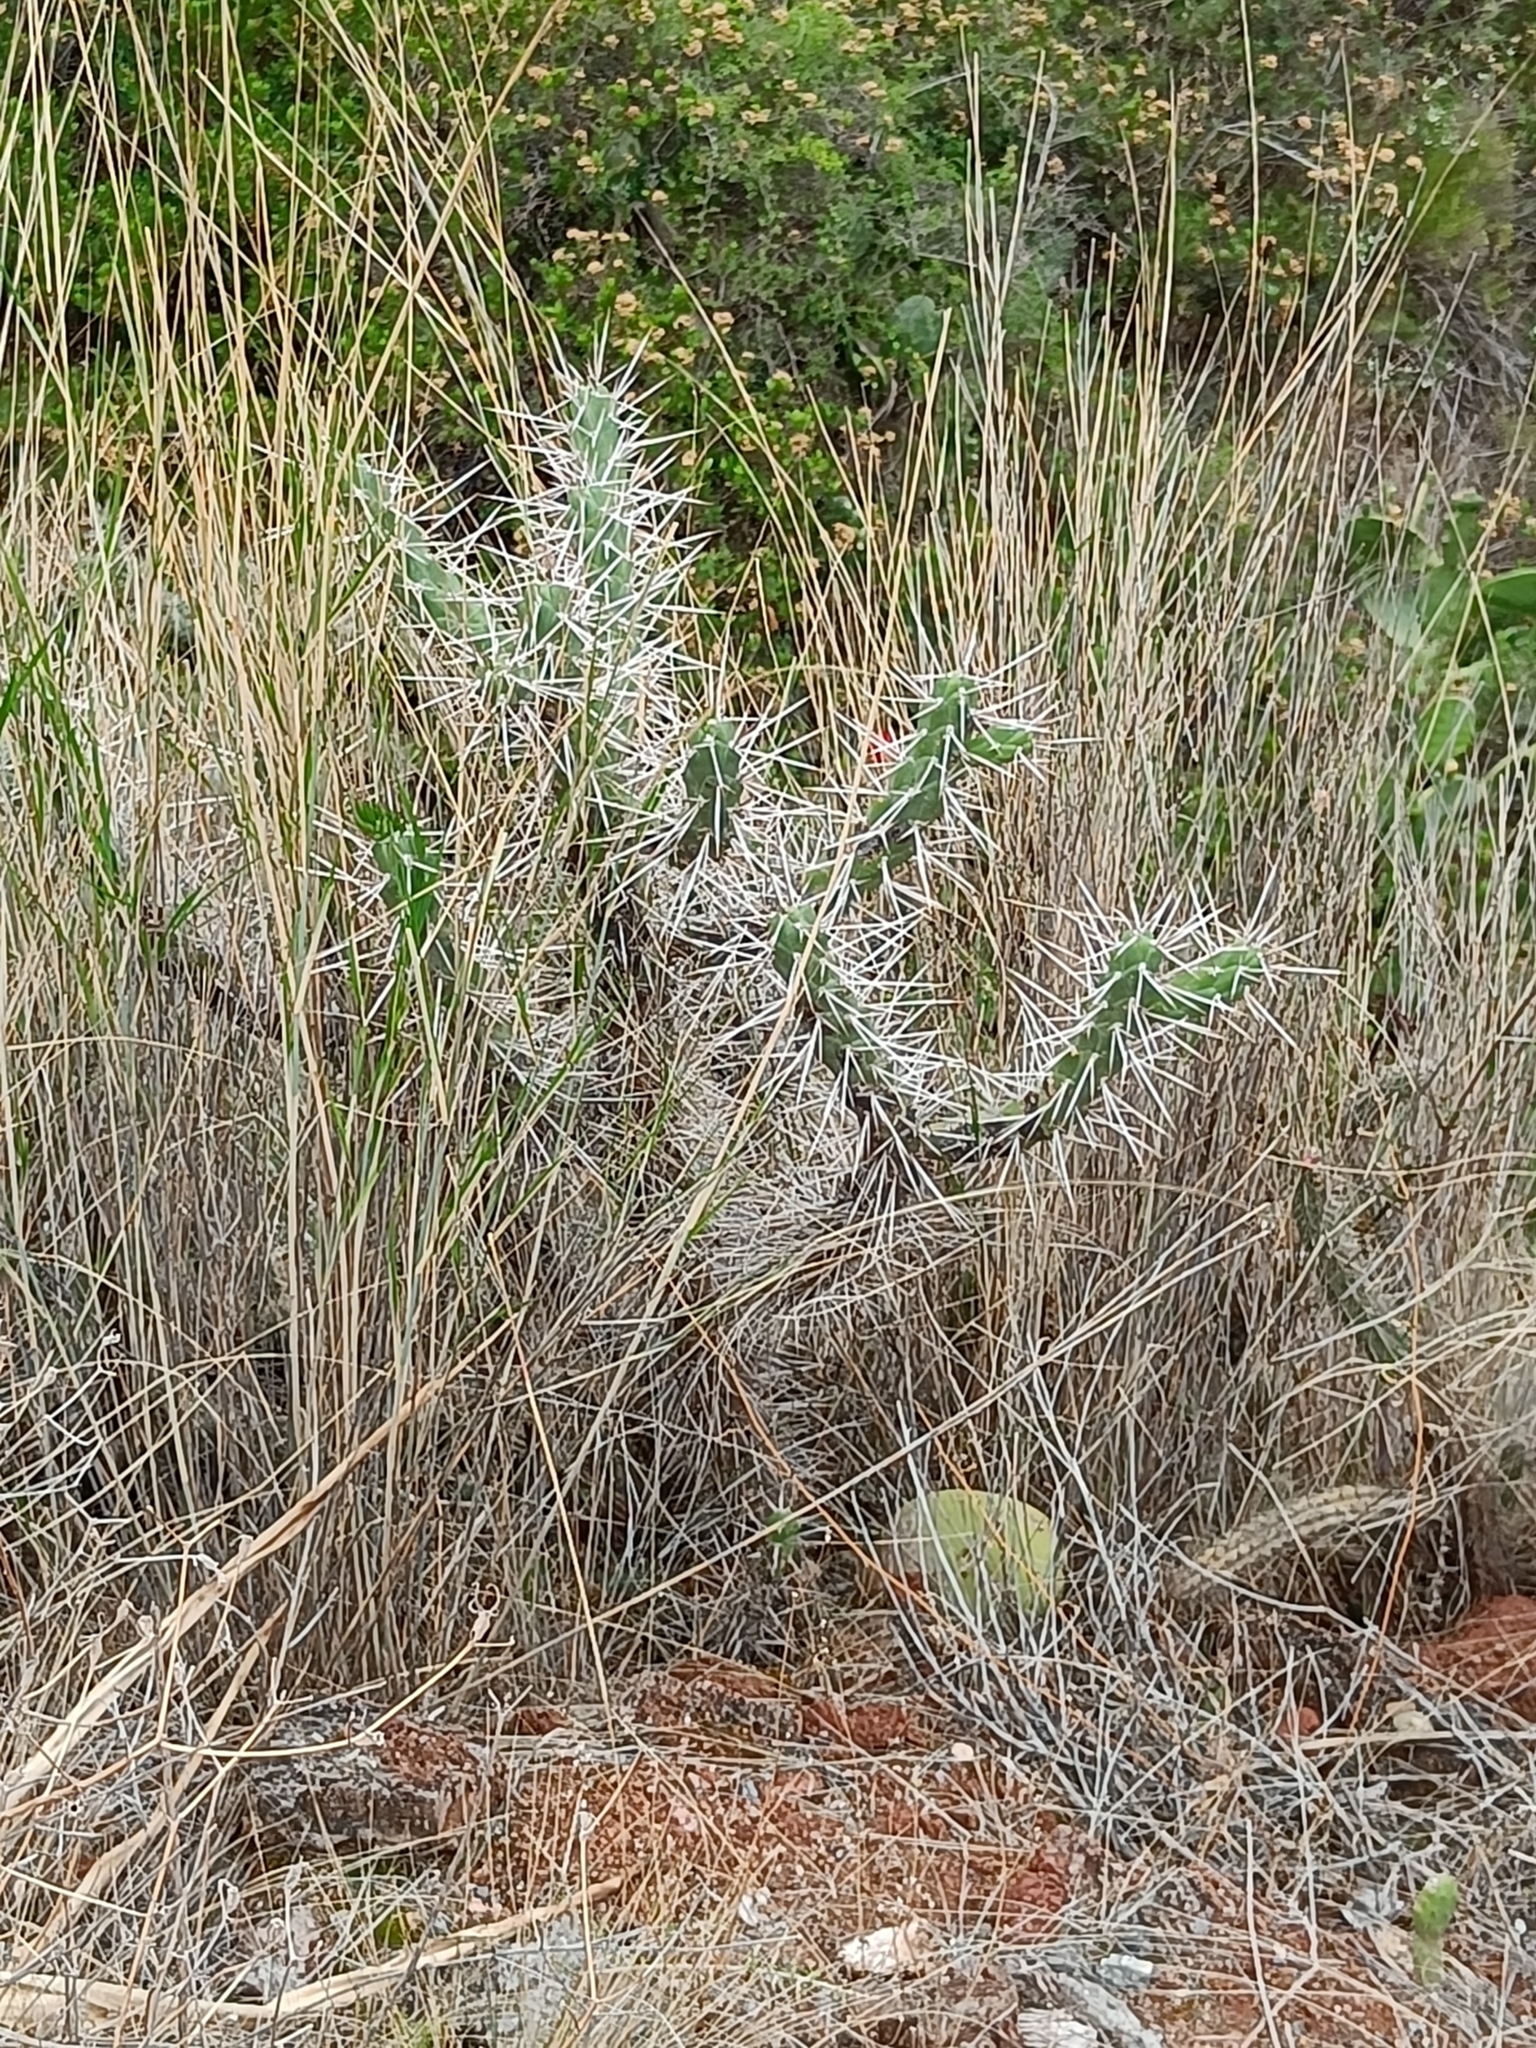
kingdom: Plantae
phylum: Tracheophyta
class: Magnoliopsida
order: Caryophyllales
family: Cactaceae
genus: Austrocylindropuntia
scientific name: Austrocylindropuntia subulata
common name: Eve's needle cactus
